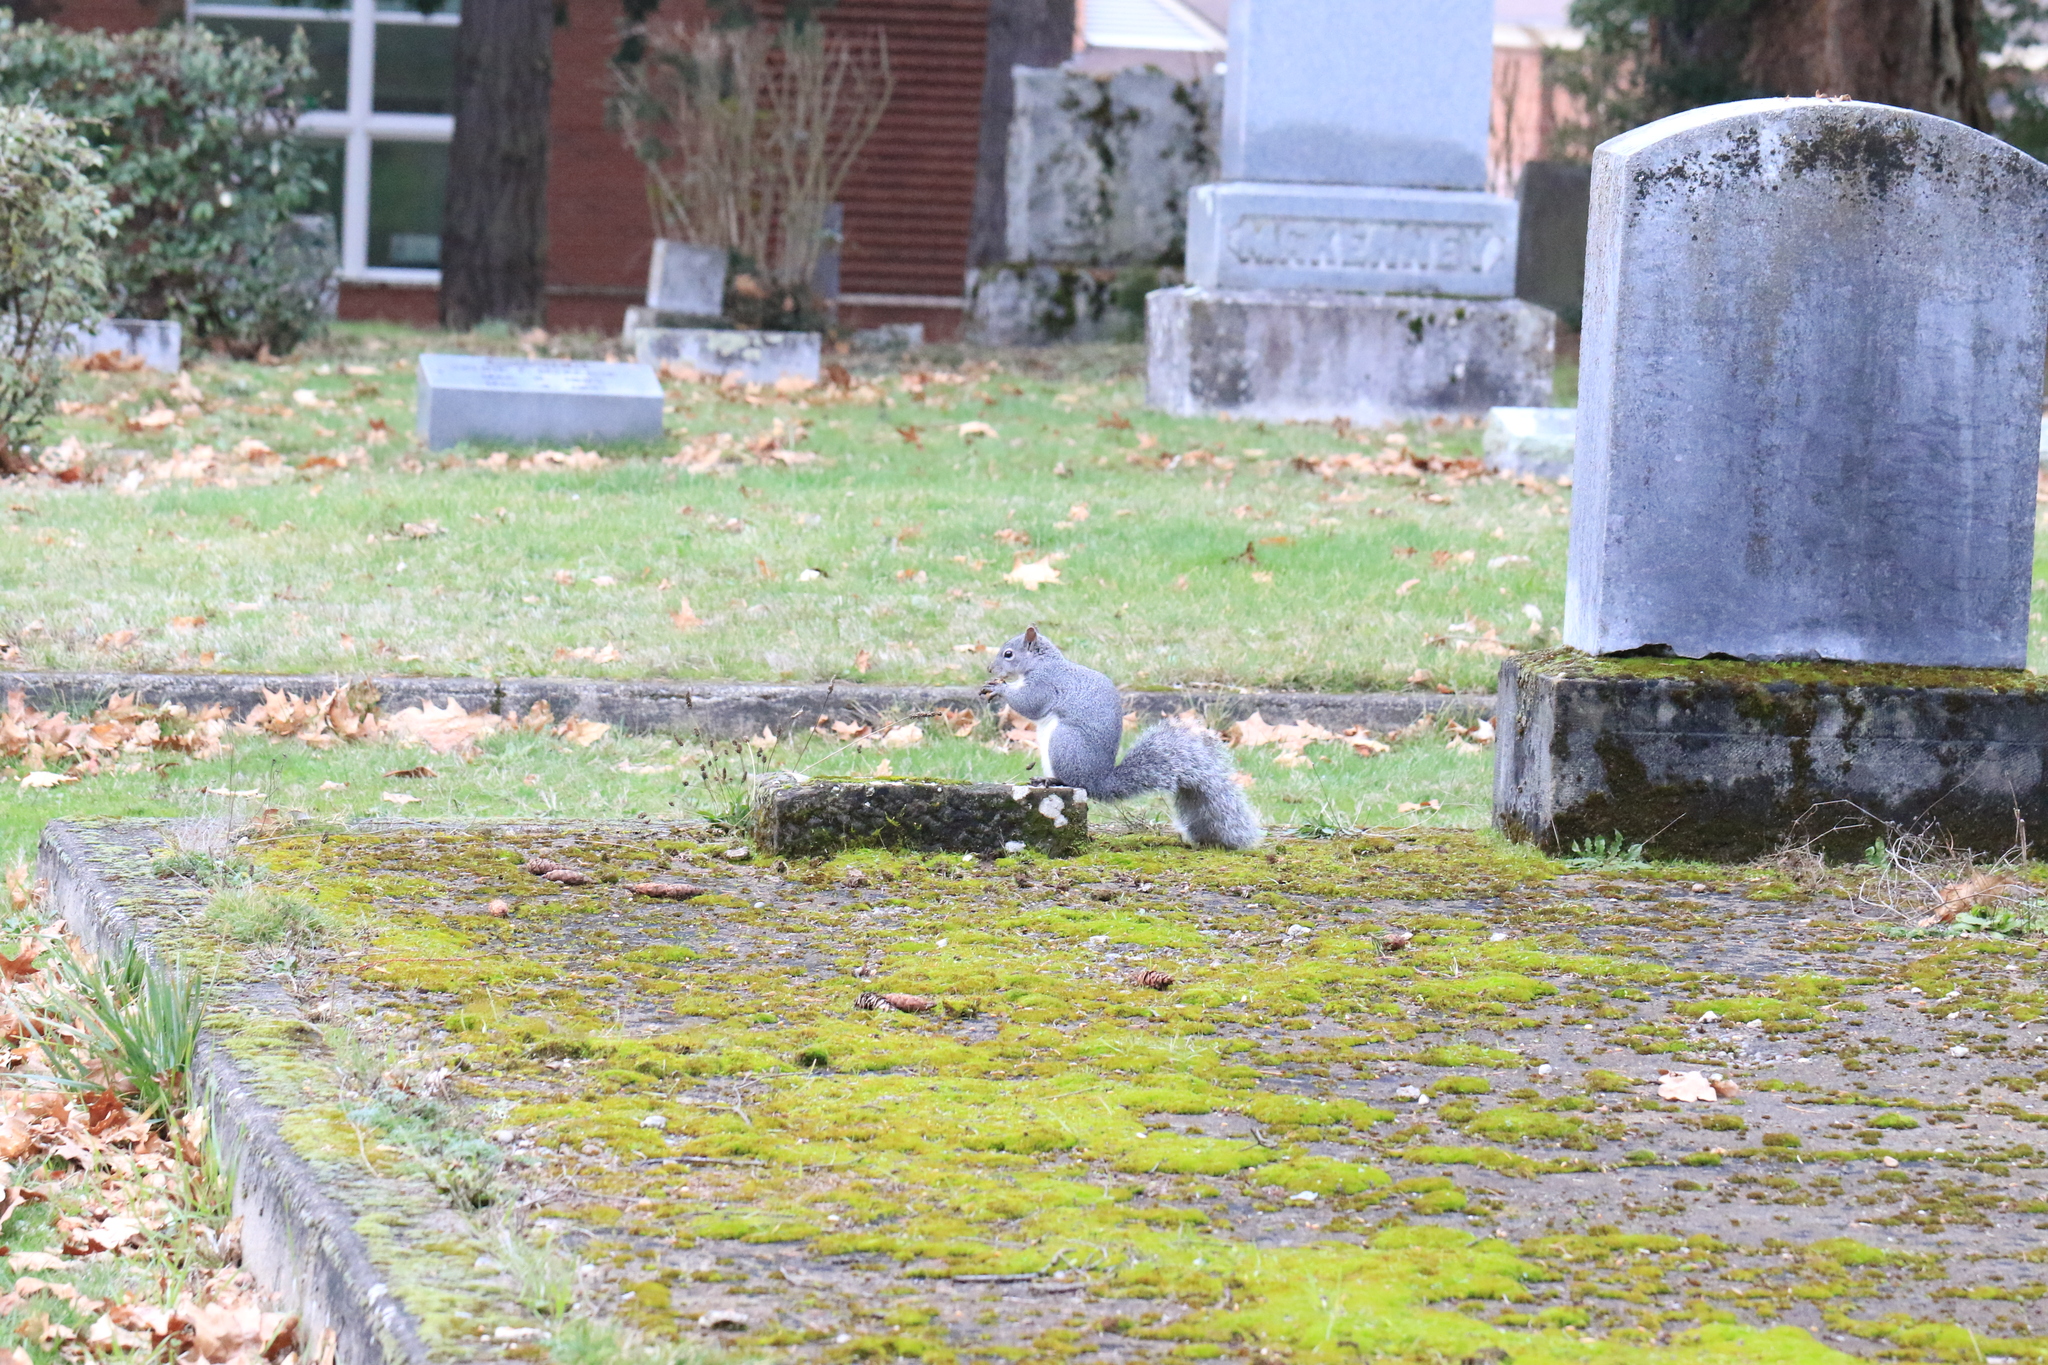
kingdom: Animalia
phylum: Chordata
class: Mammalia
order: Rodentia
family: Sciuridae
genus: Sciurus
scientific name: Sciurus griseus
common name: Western gray squirrel
